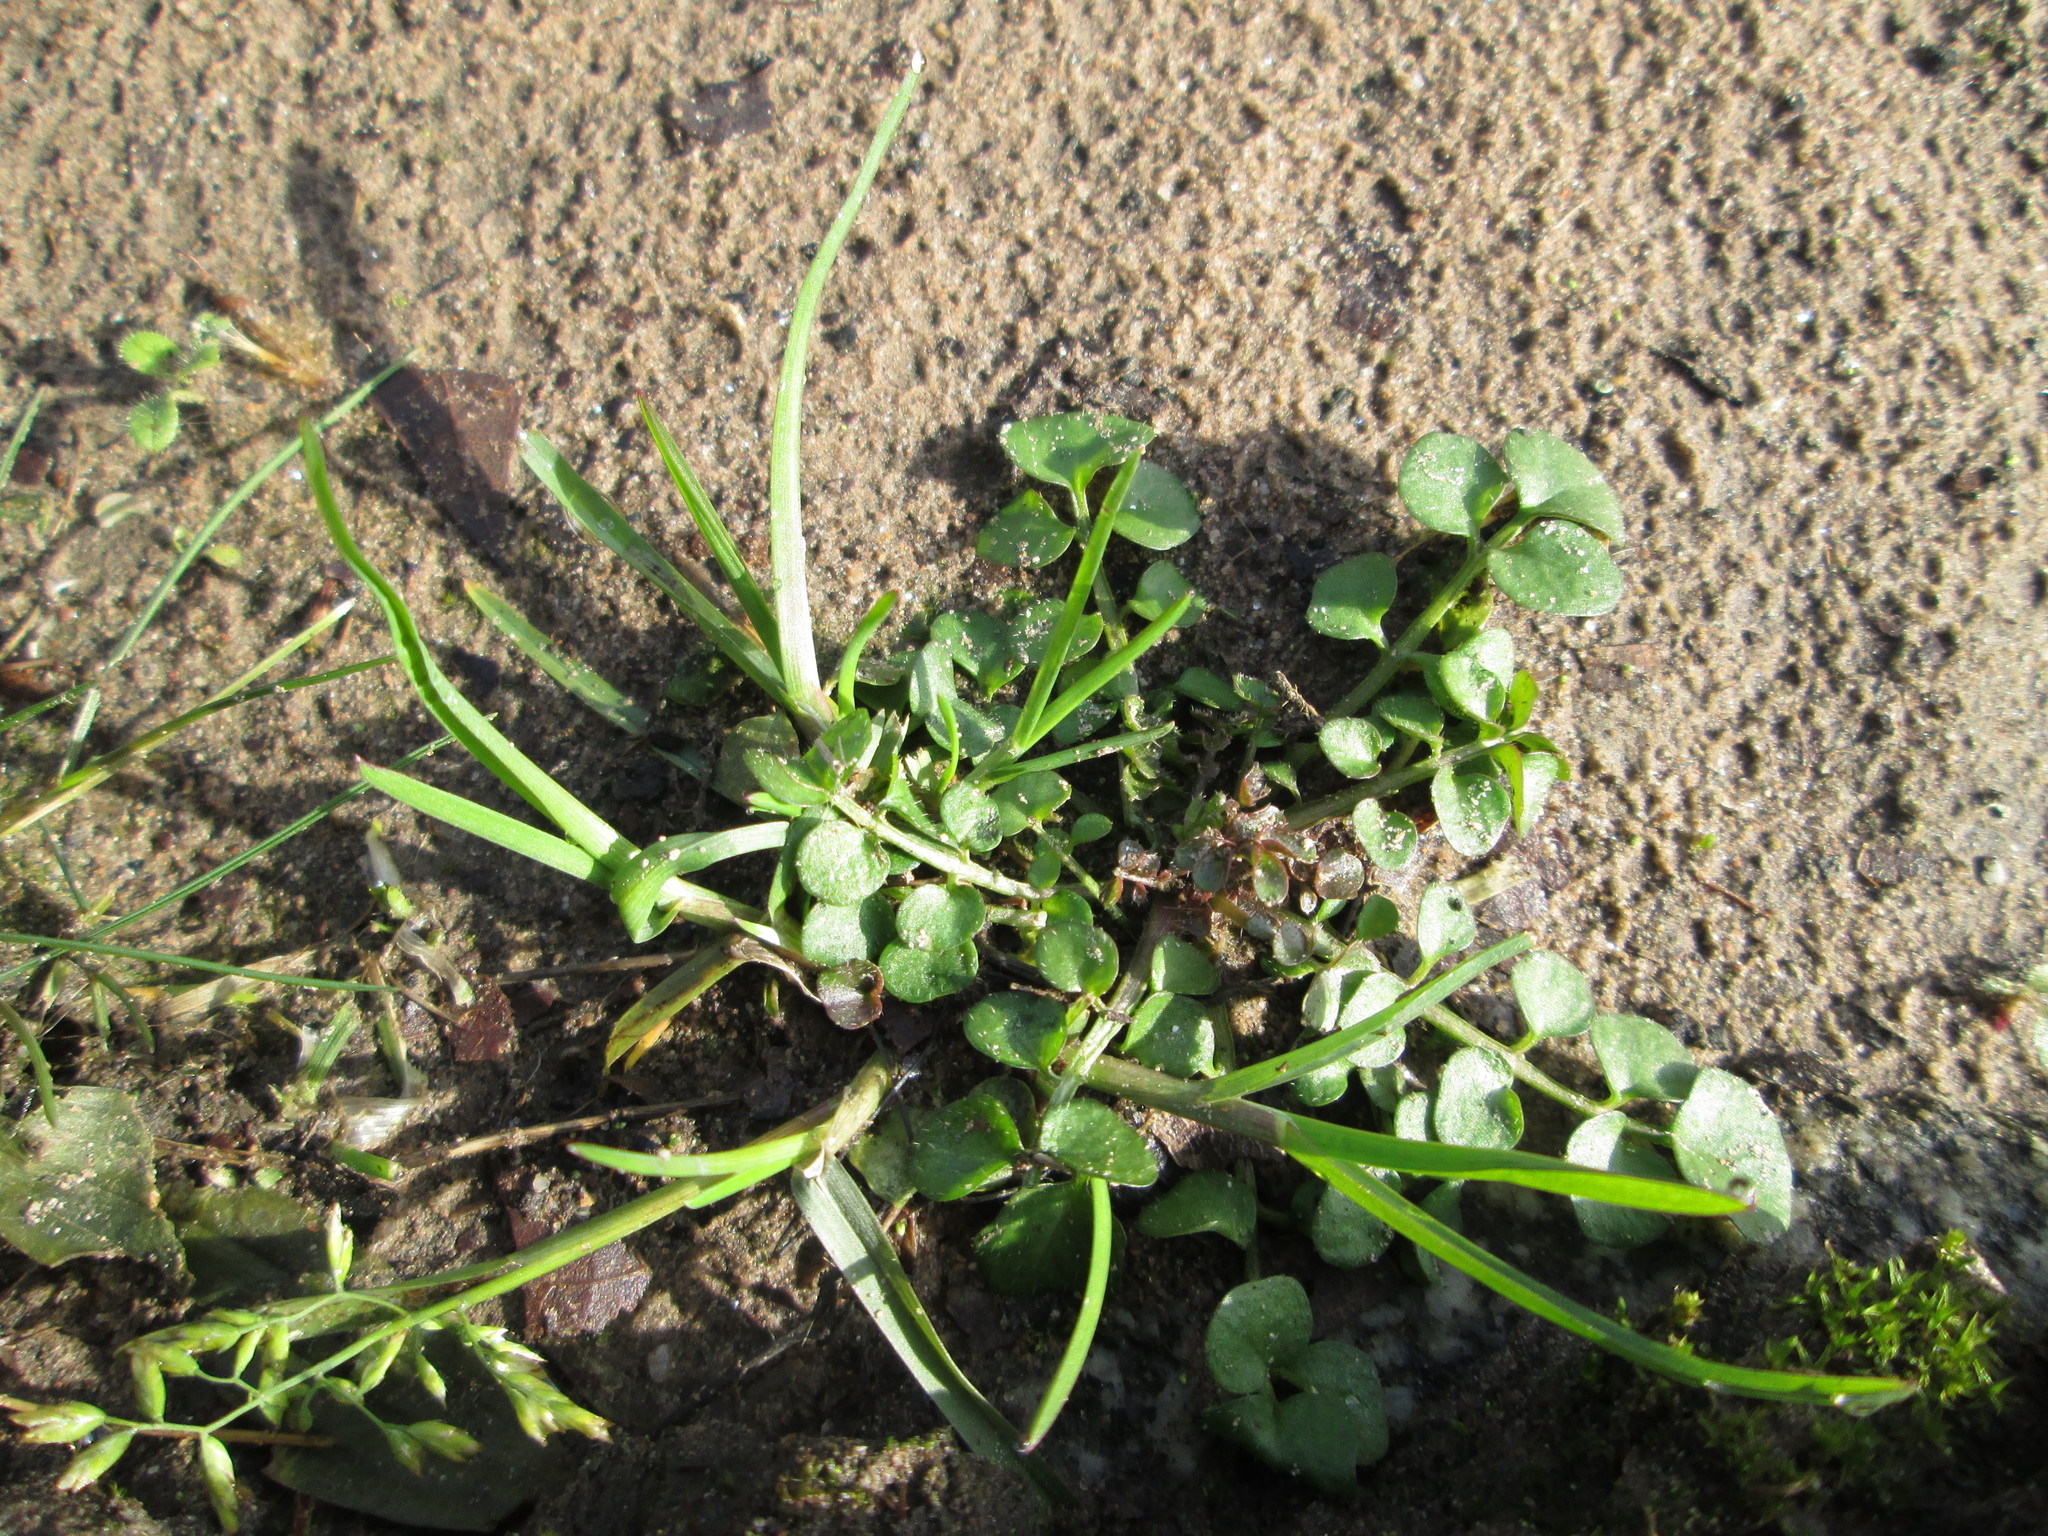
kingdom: Plantae
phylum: Tracheophyta
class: Magnoliopsida
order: Brassicales
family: Brassicaceae
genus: Cardamine
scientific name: Cardamine hirsuta
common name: Hairy bittercress
